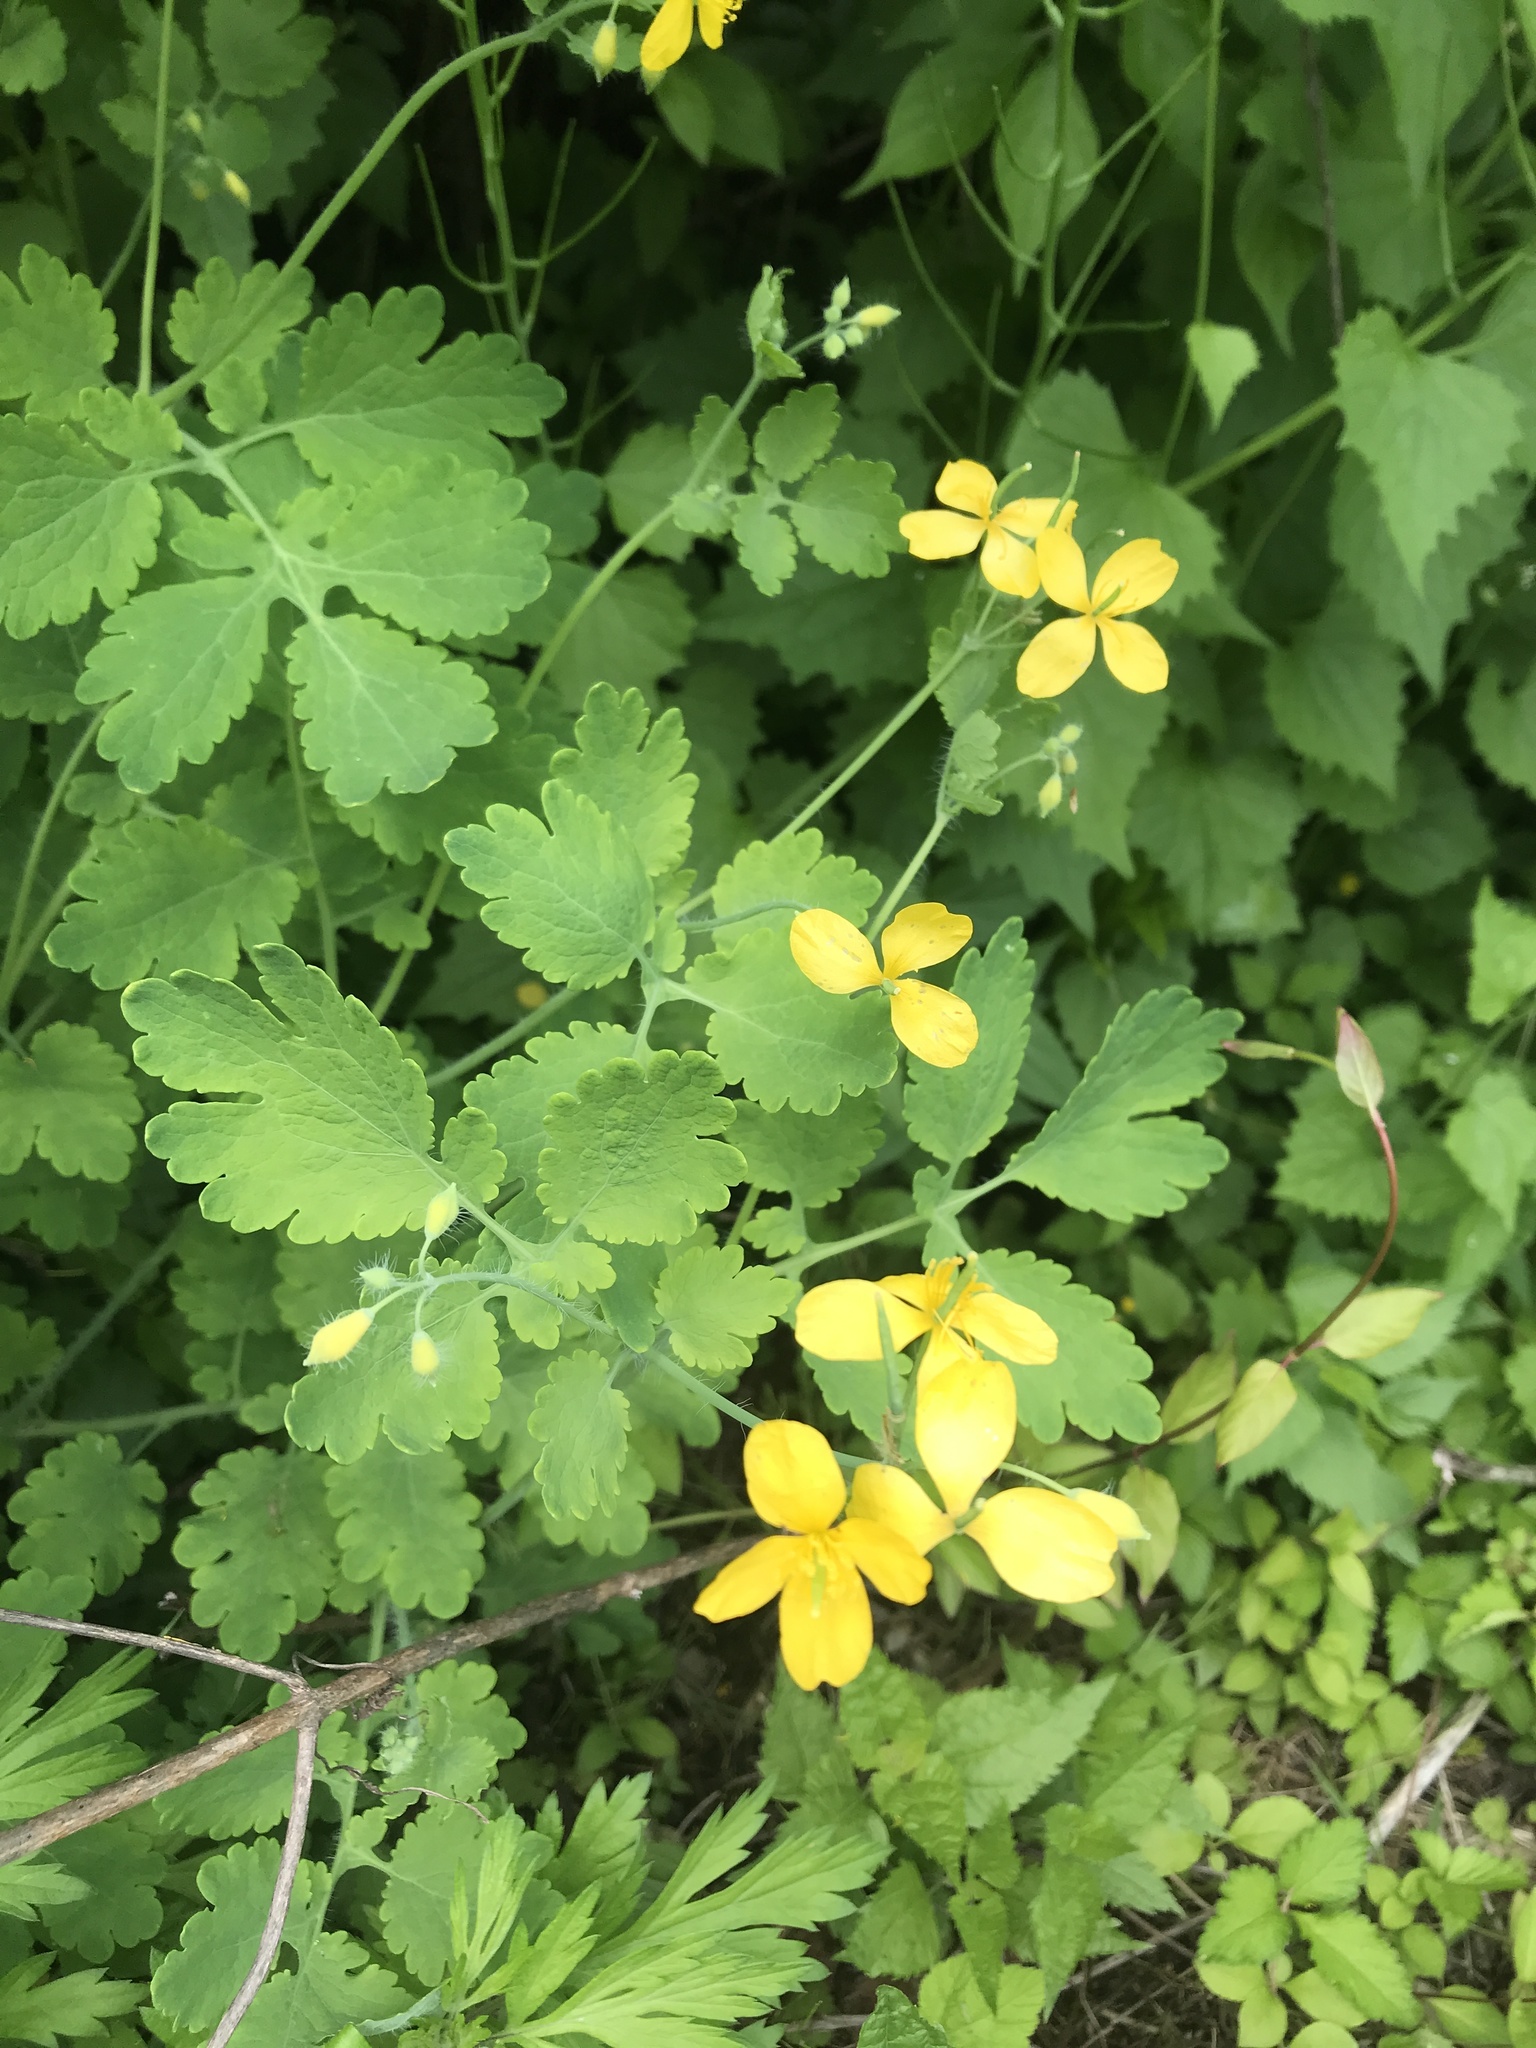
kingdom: Plantae
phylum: Tracheophyta
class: Magnoliopsida
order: Ranunculales
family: Papaveraceae
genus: Chelidonium
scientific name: Chelidonium majus
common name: Greater celandine
